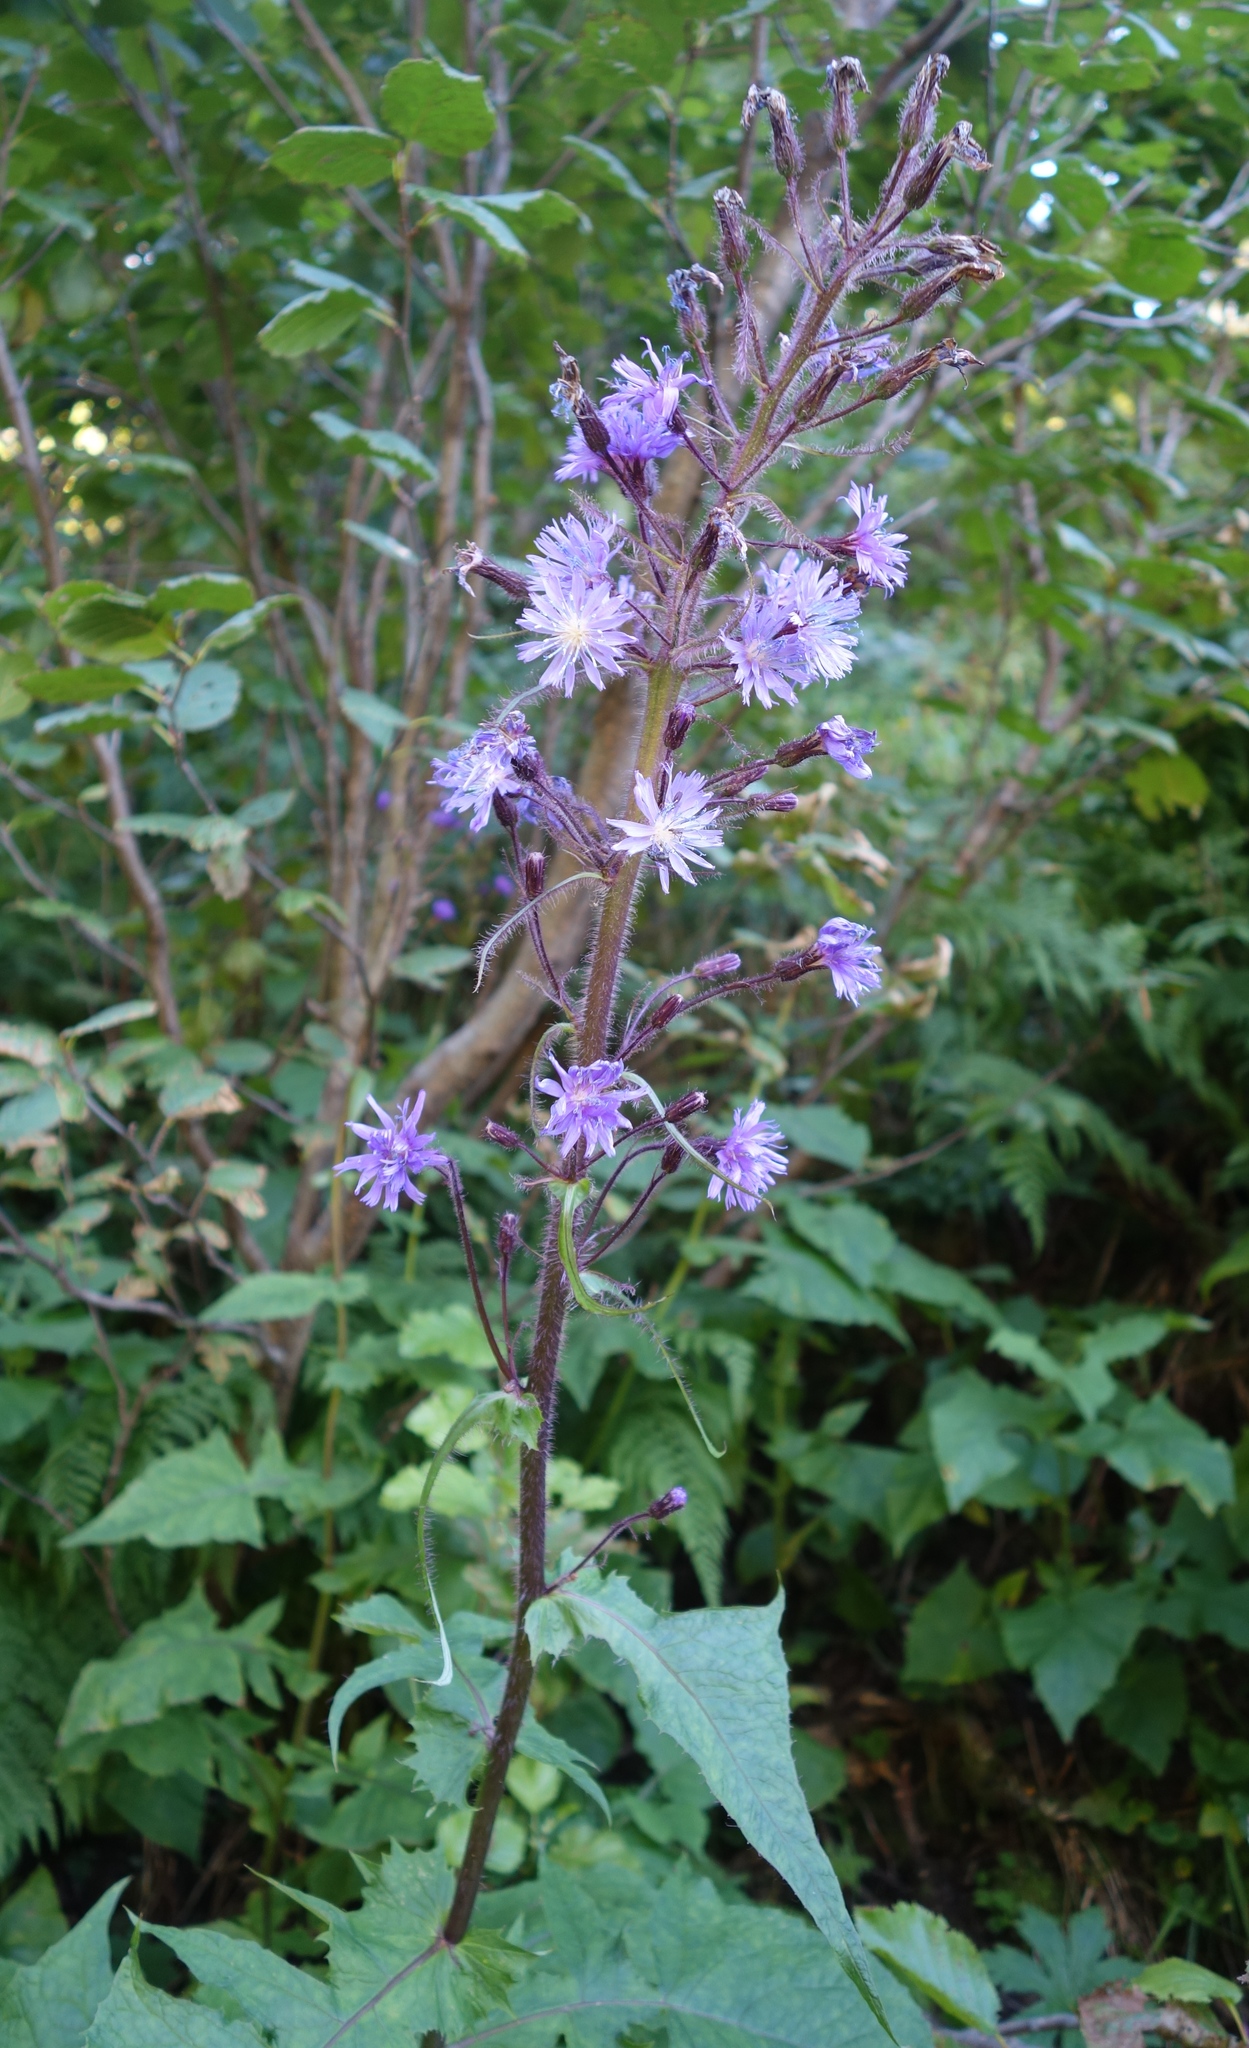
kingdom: Plantae
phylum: Tracheophyta
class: Magnoliopsida
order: Asterales
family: Asteraceae
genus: Cicerbita
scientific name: Cicerbita alpina
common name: Alpine blue-sow-thistle
